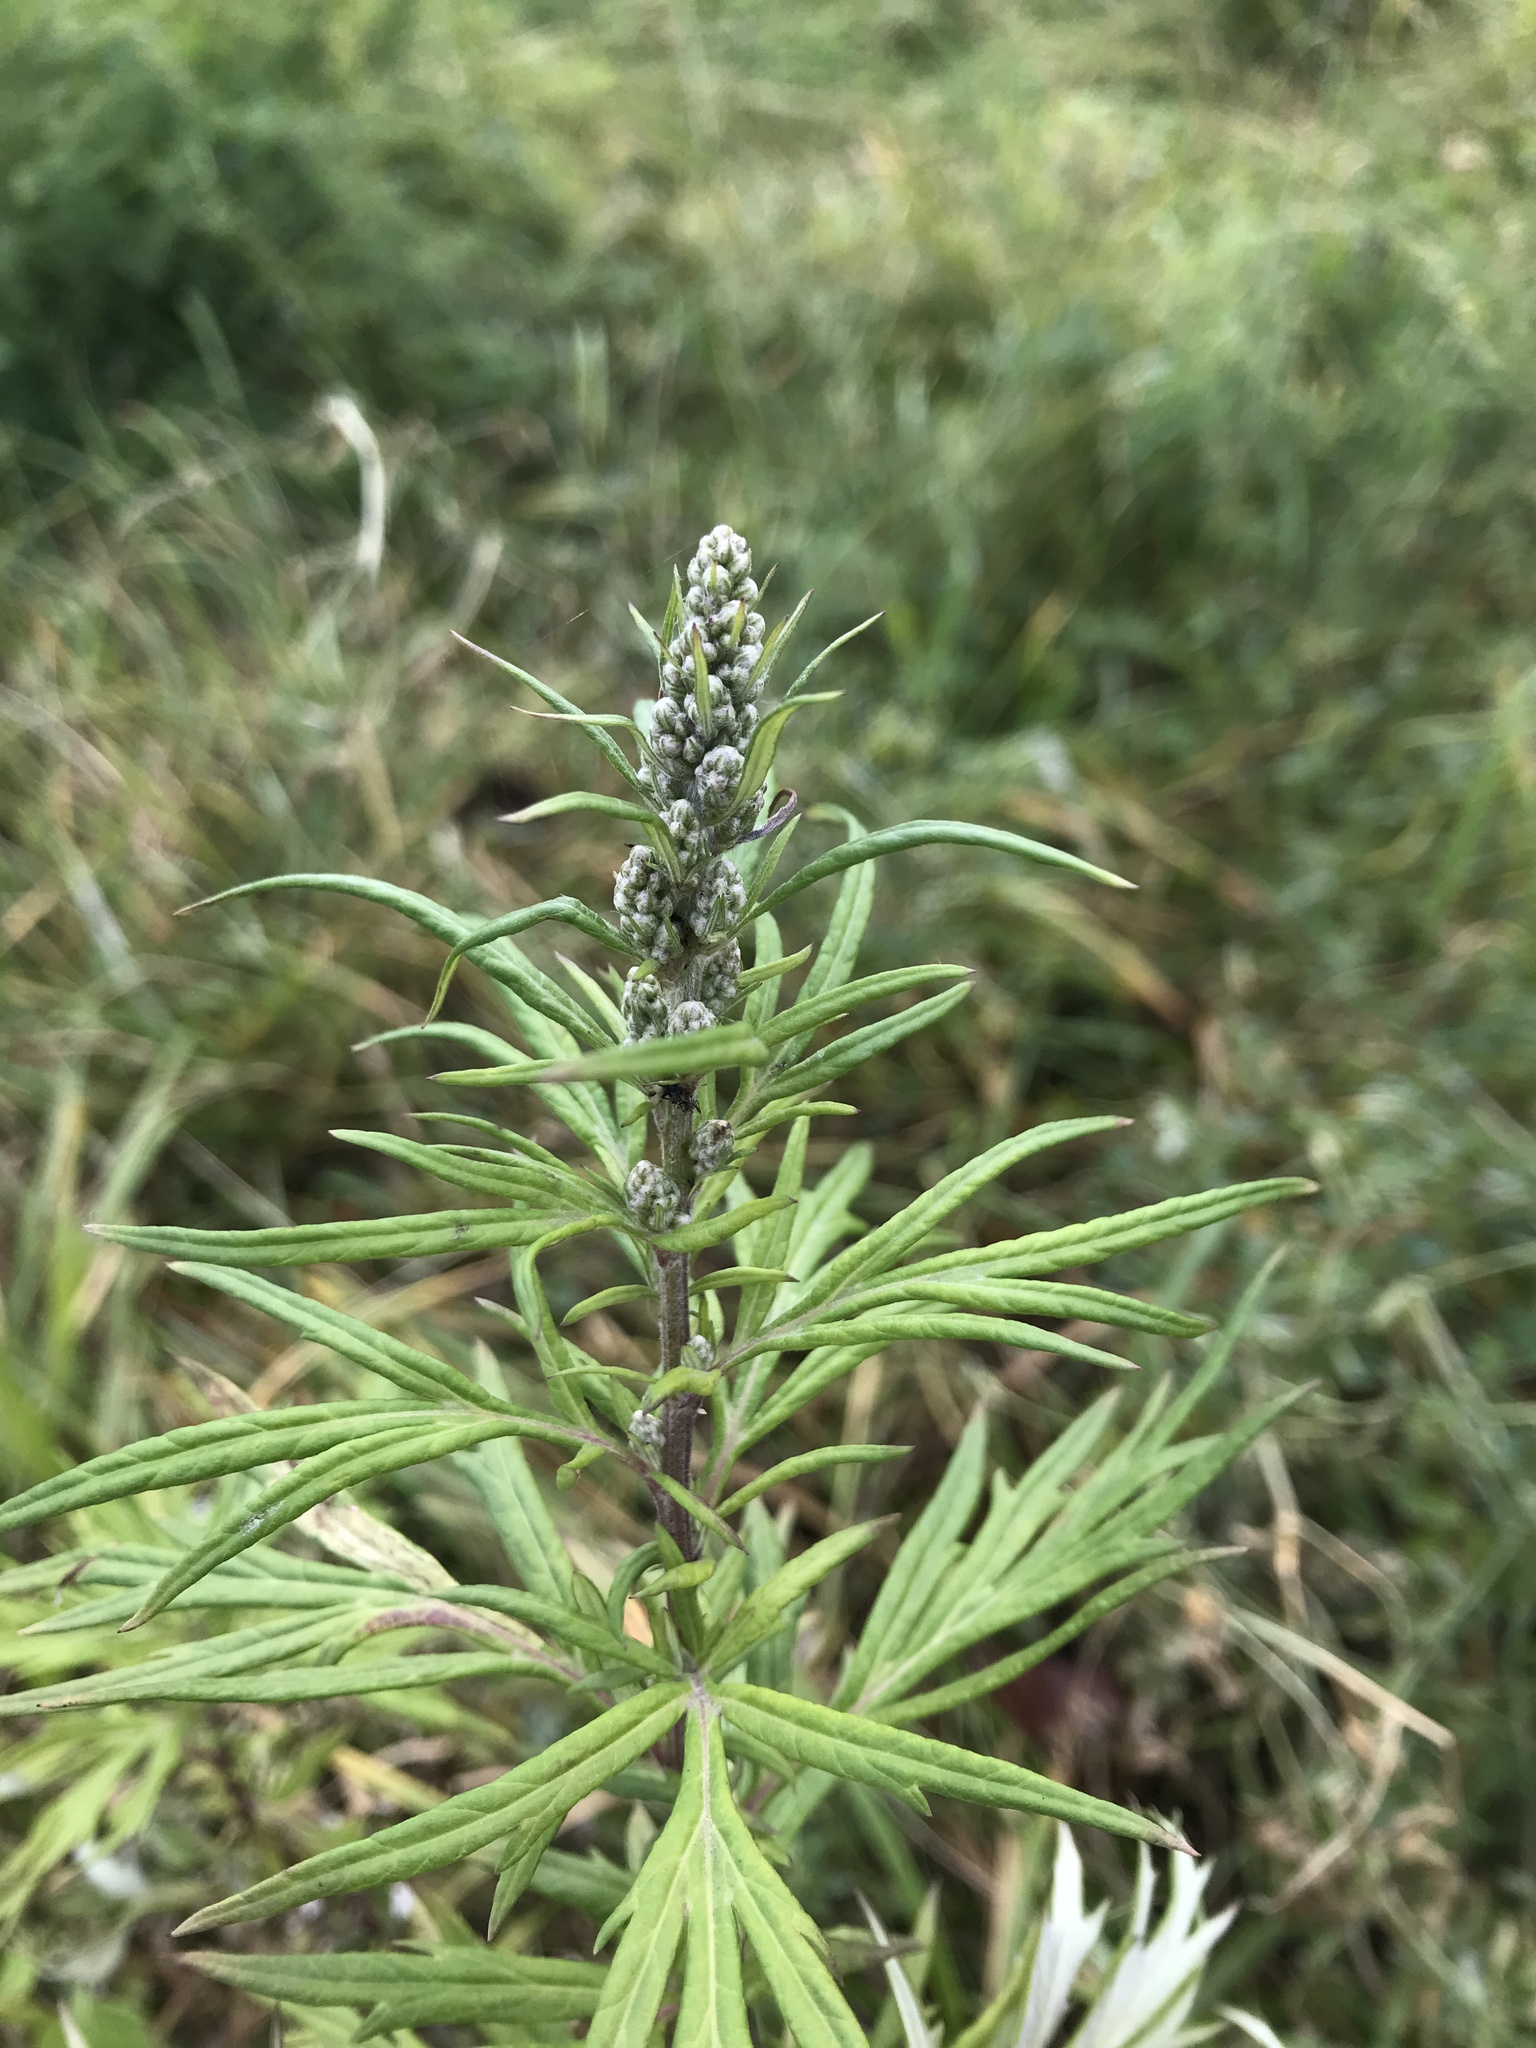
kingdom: Plantae
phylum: Tracheophyta
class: Magnoliopsida
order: Asterales
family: Asteraceae
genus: Artemisia
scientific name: Artemisia vulgaris
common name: Mugwort
